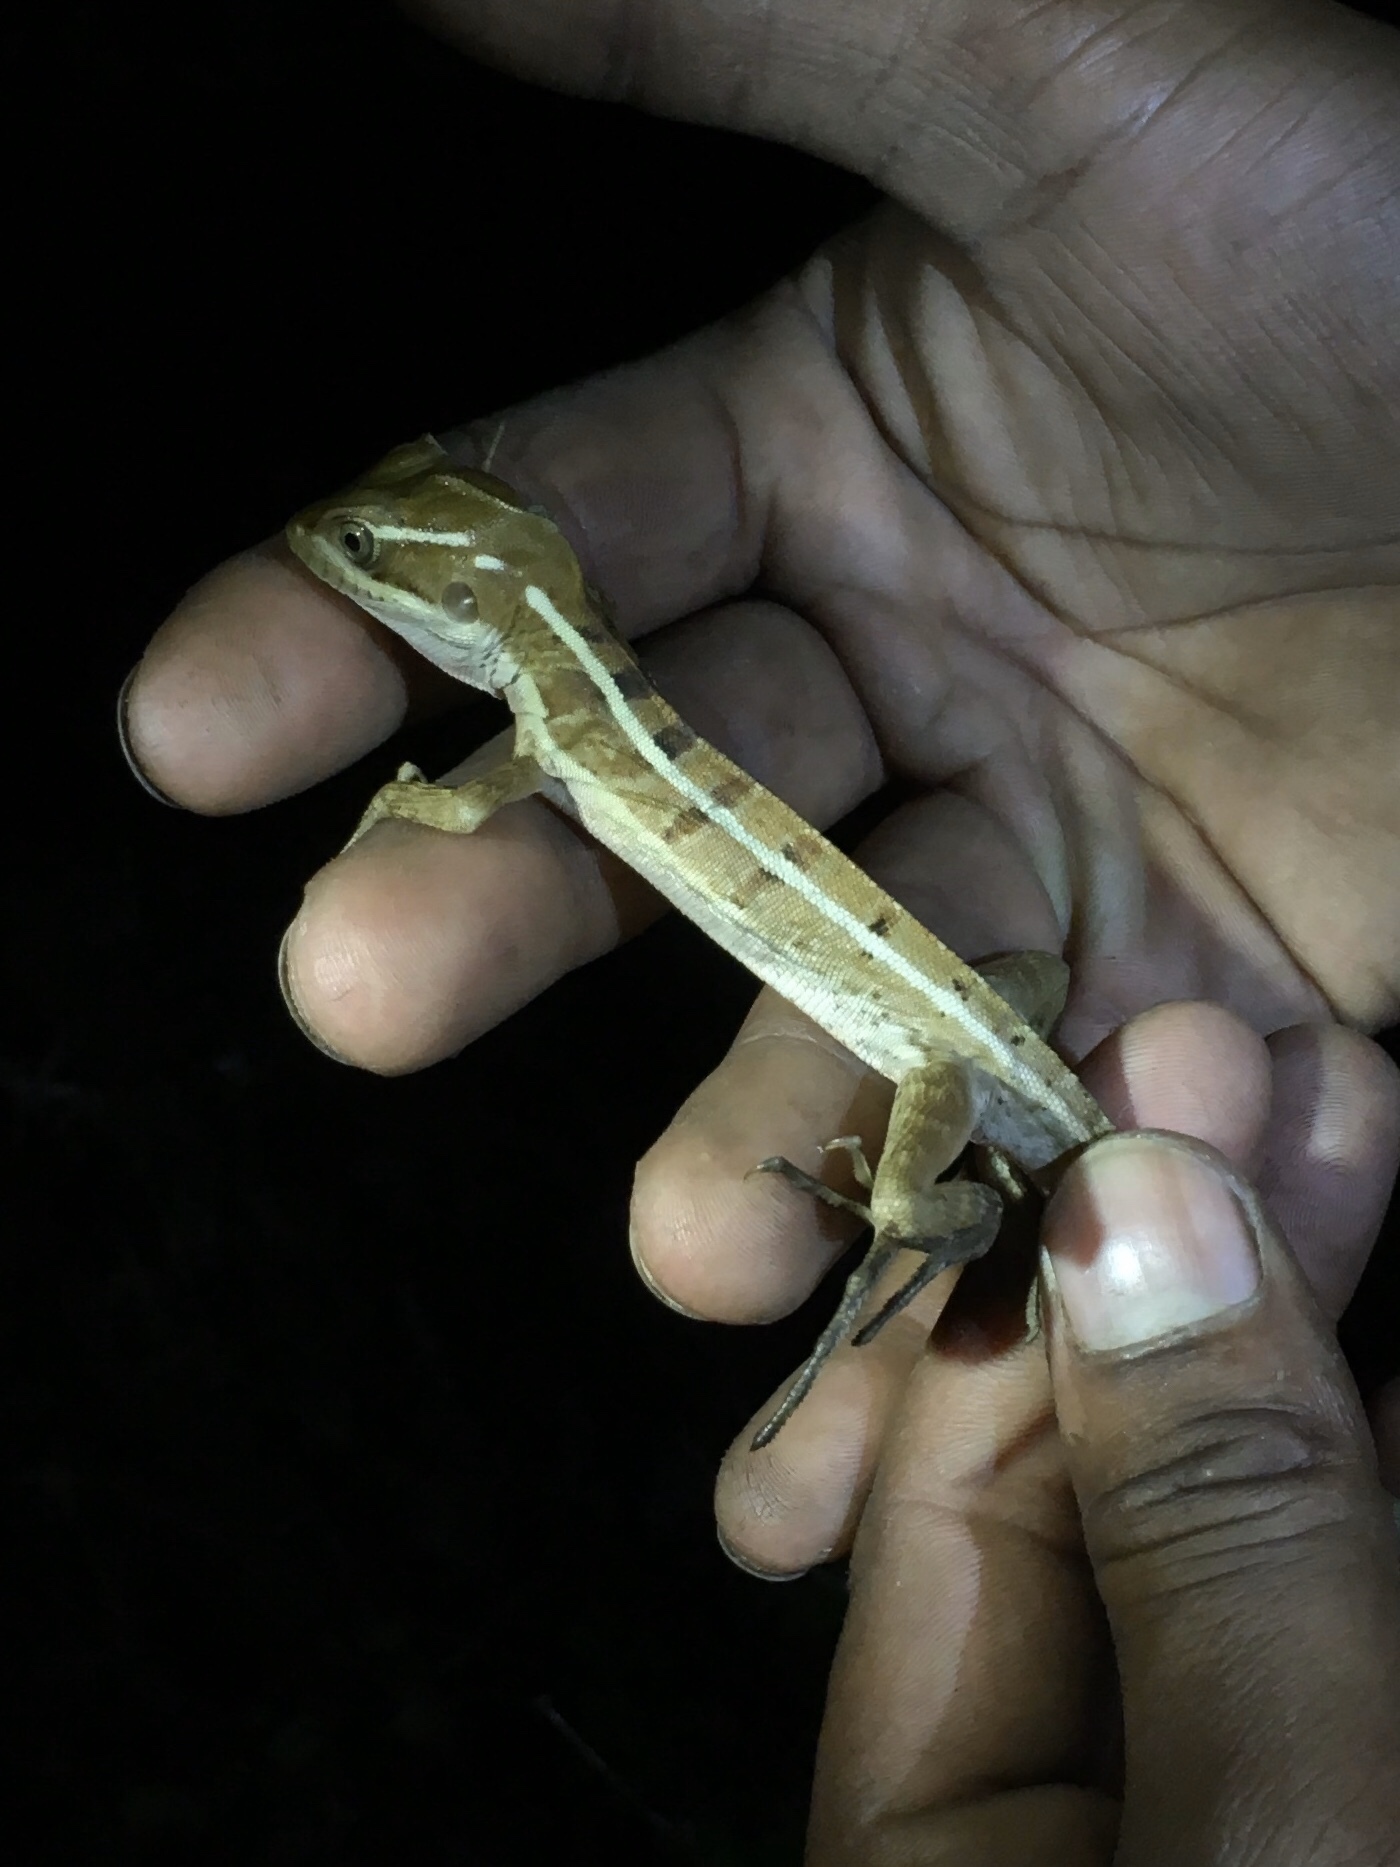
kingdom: Animalia
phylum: Chordata
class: Squamata
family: Corytophanidae
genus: Basiliscus
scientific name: Basiliscus vittatus
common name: Brown basilisk
